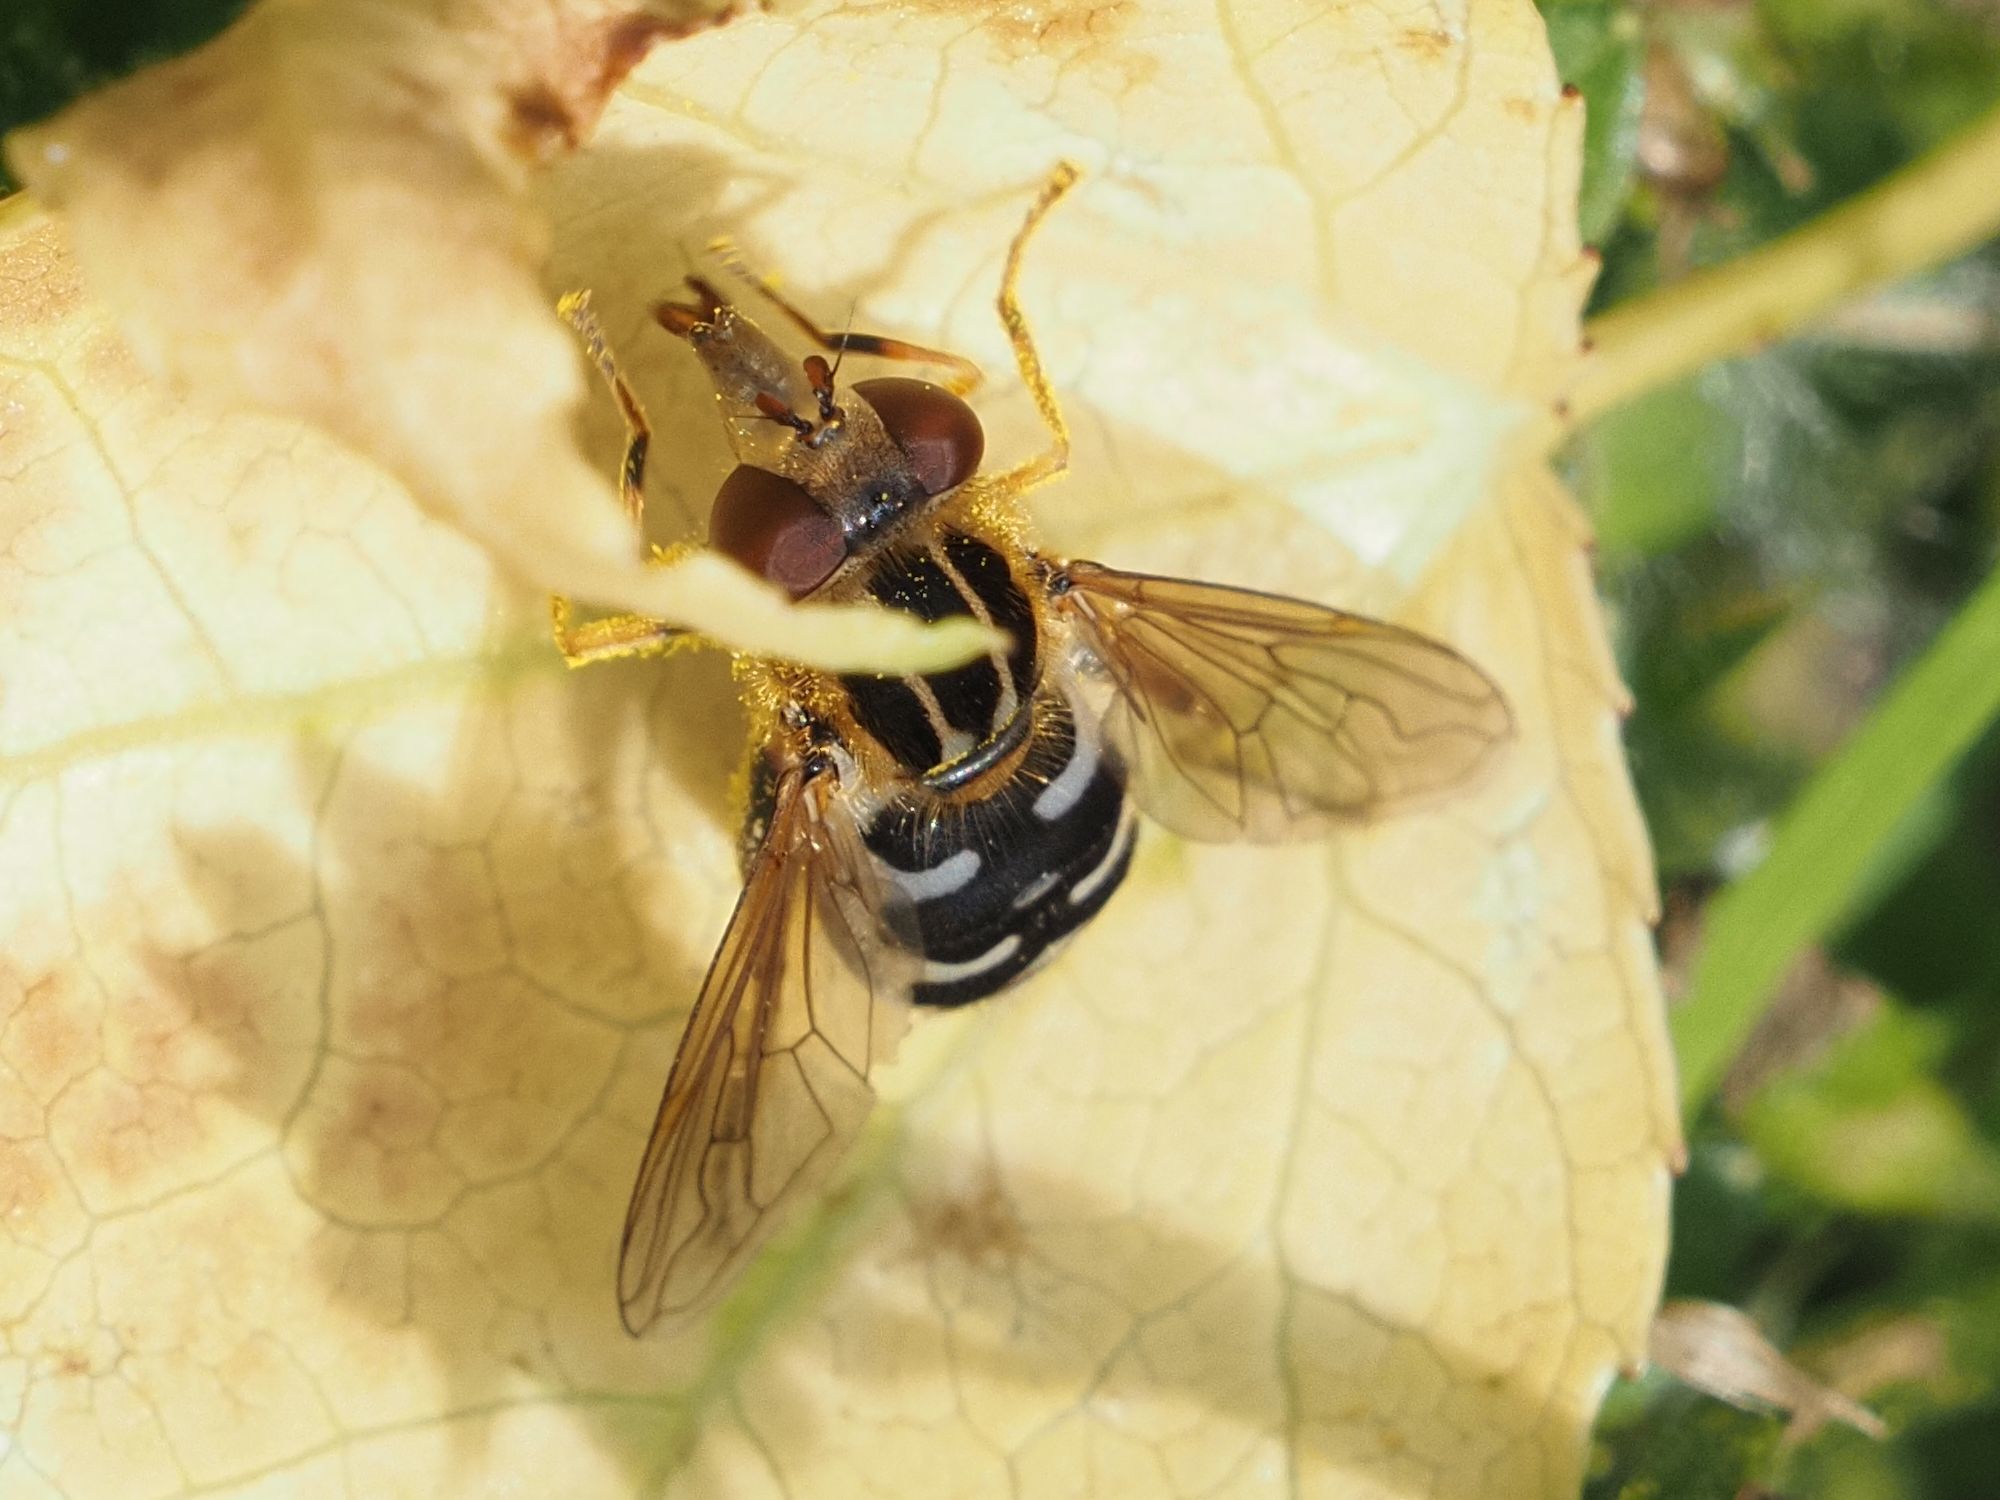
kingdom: Animalia
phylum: Arthropoda
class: Insecta
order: Diptera
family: Syrphidae
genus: Eurimyia
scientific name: Eurimyia lineatus
